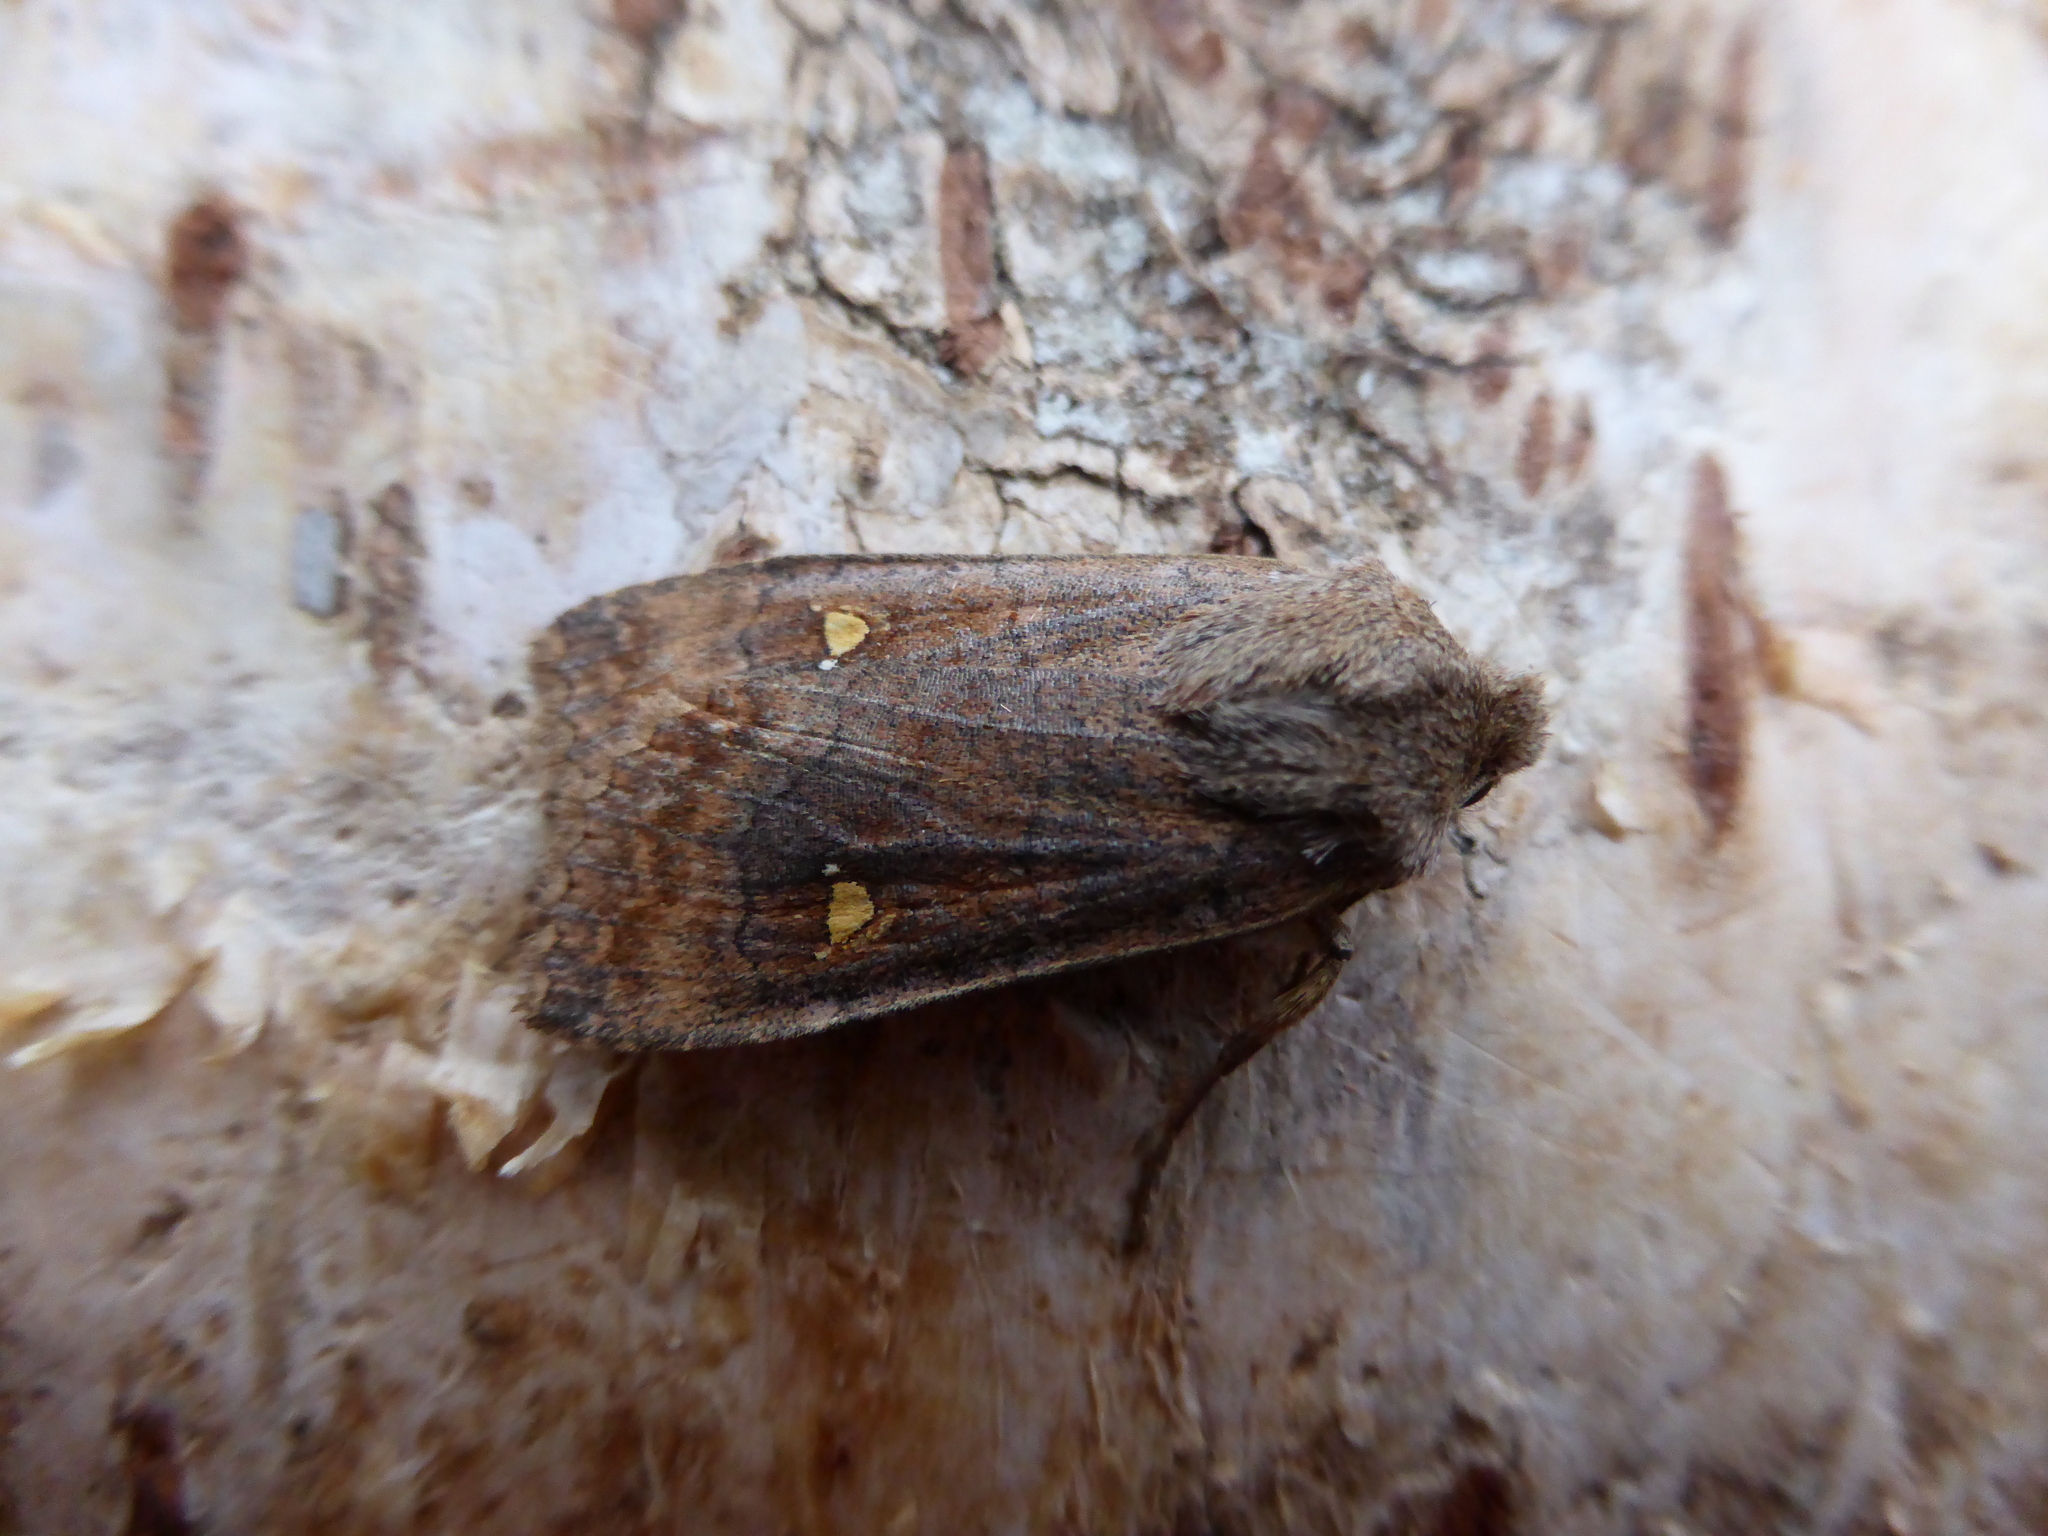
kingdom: Animalia
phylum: Arthropoda
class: Insecta
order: Lepidoptera
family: Noctuidae
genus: Eupsilia
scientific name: Eupsilia transversa
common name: Satellite
